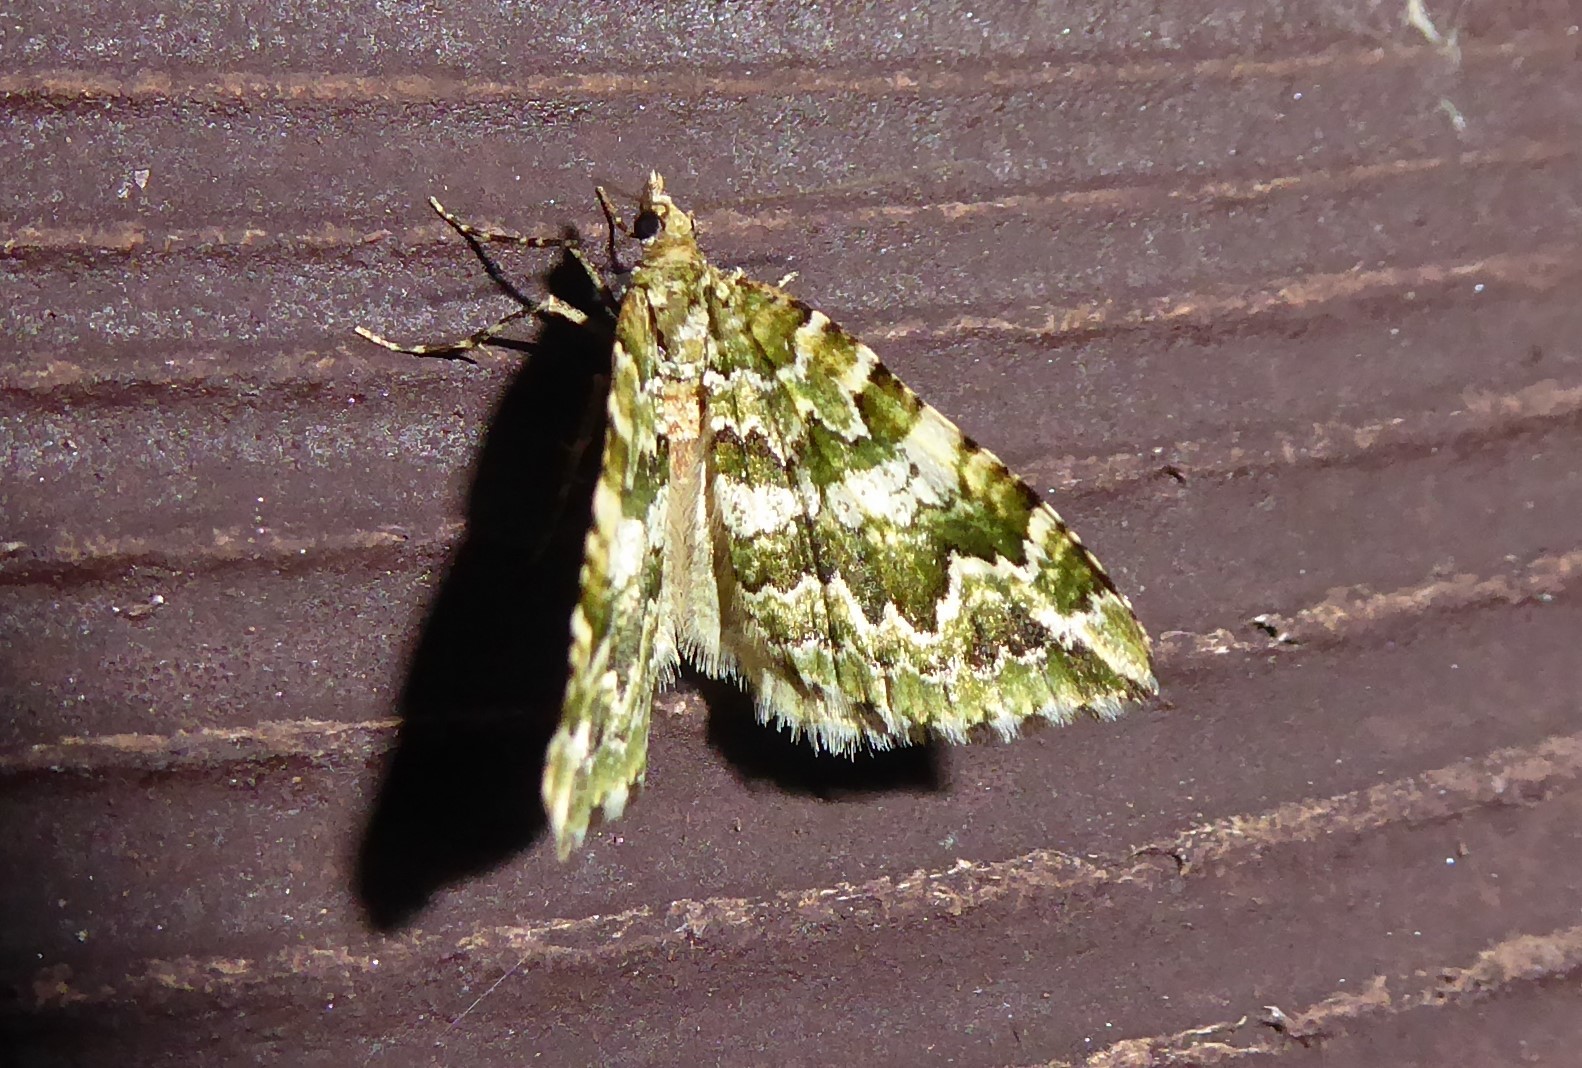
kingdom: Animalia
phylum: Arthropoda
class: Insecta
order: Lepidoptera
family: Geometridae
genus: Asaphodes
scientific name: Asaphodes beata
